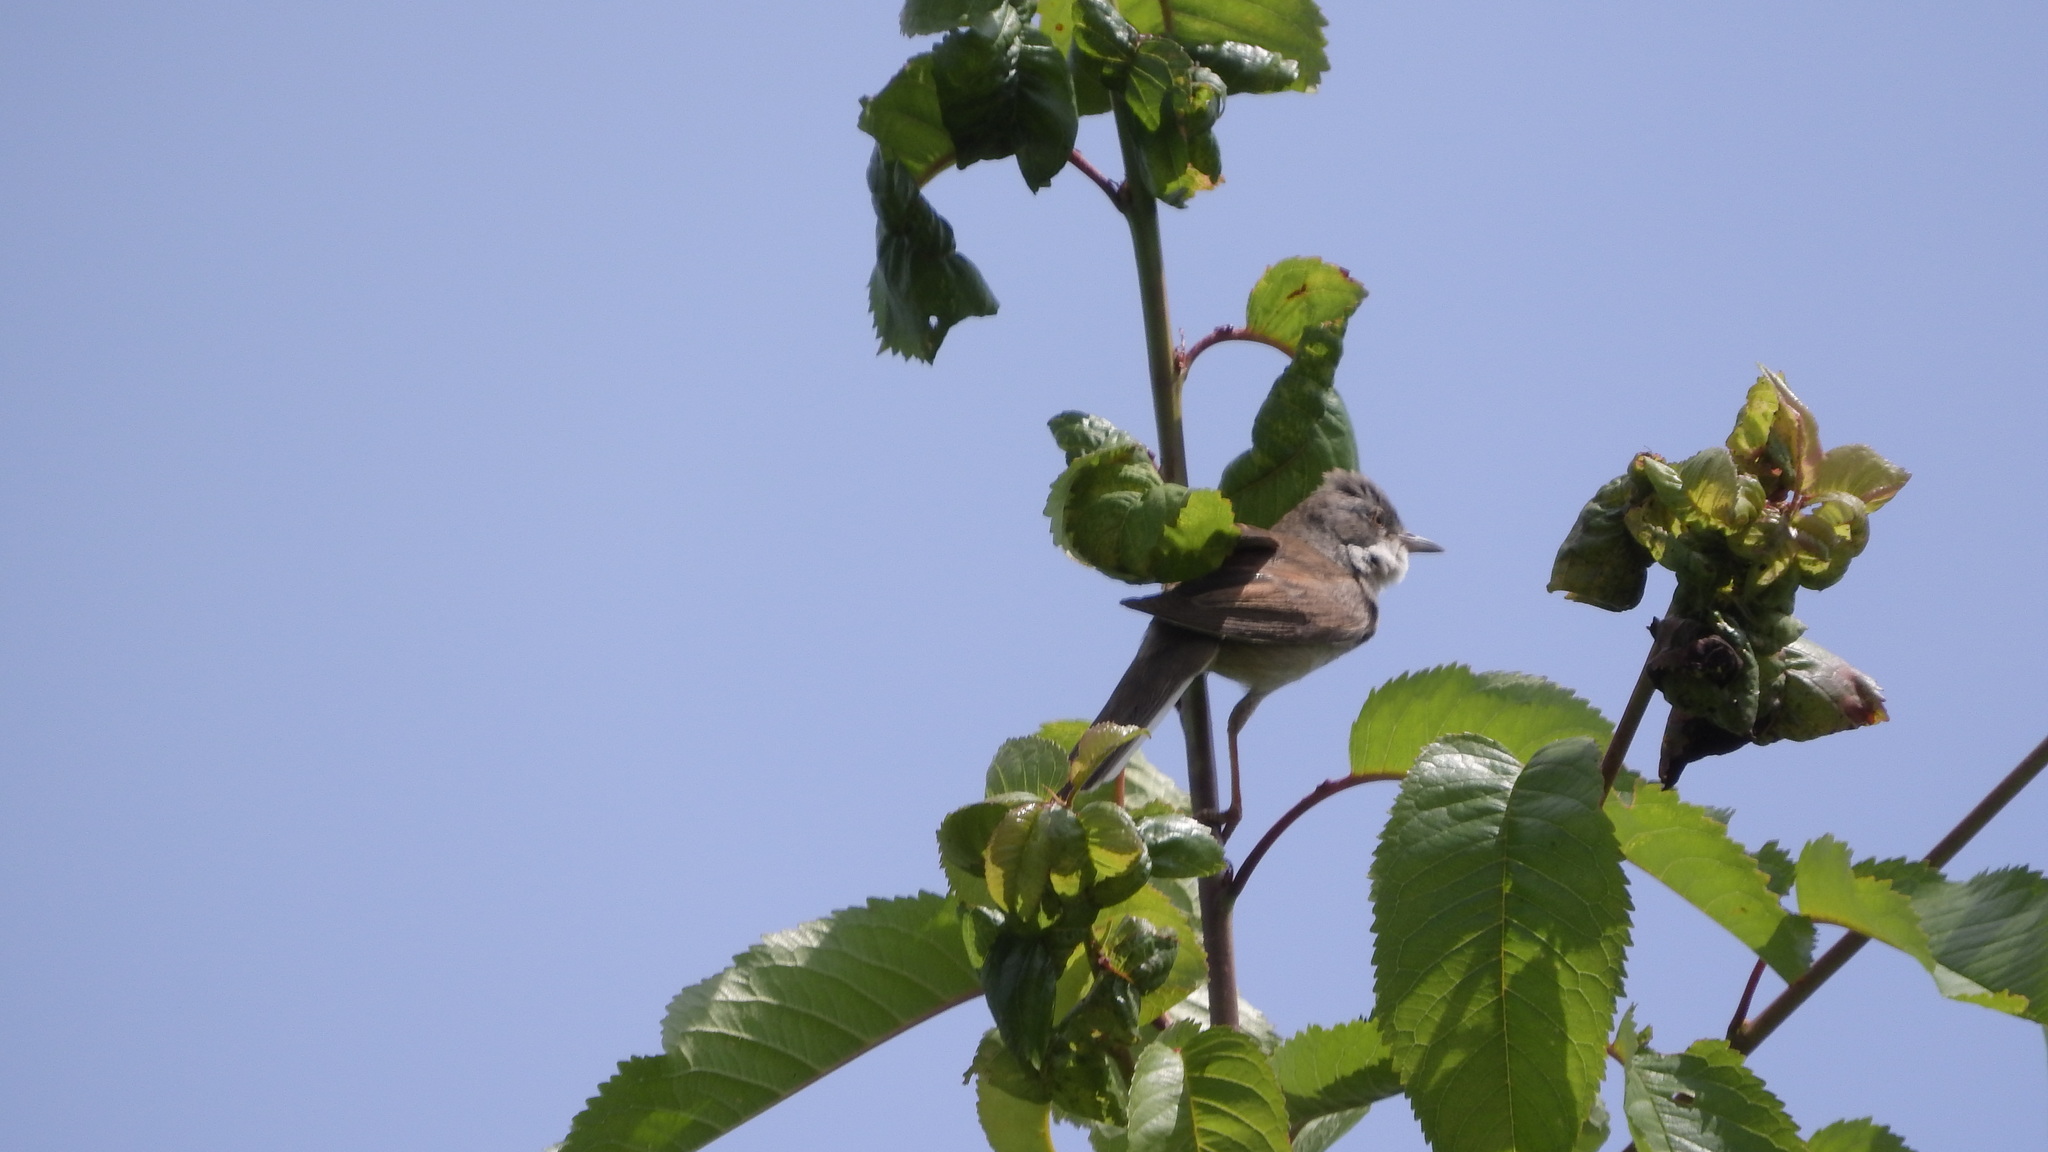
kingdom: Animalia
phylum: Chordata
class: Aves
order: Passeriformes
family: Sylviidae
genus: Sylvia
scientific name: Sylvia communis
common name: Common whitethroat
